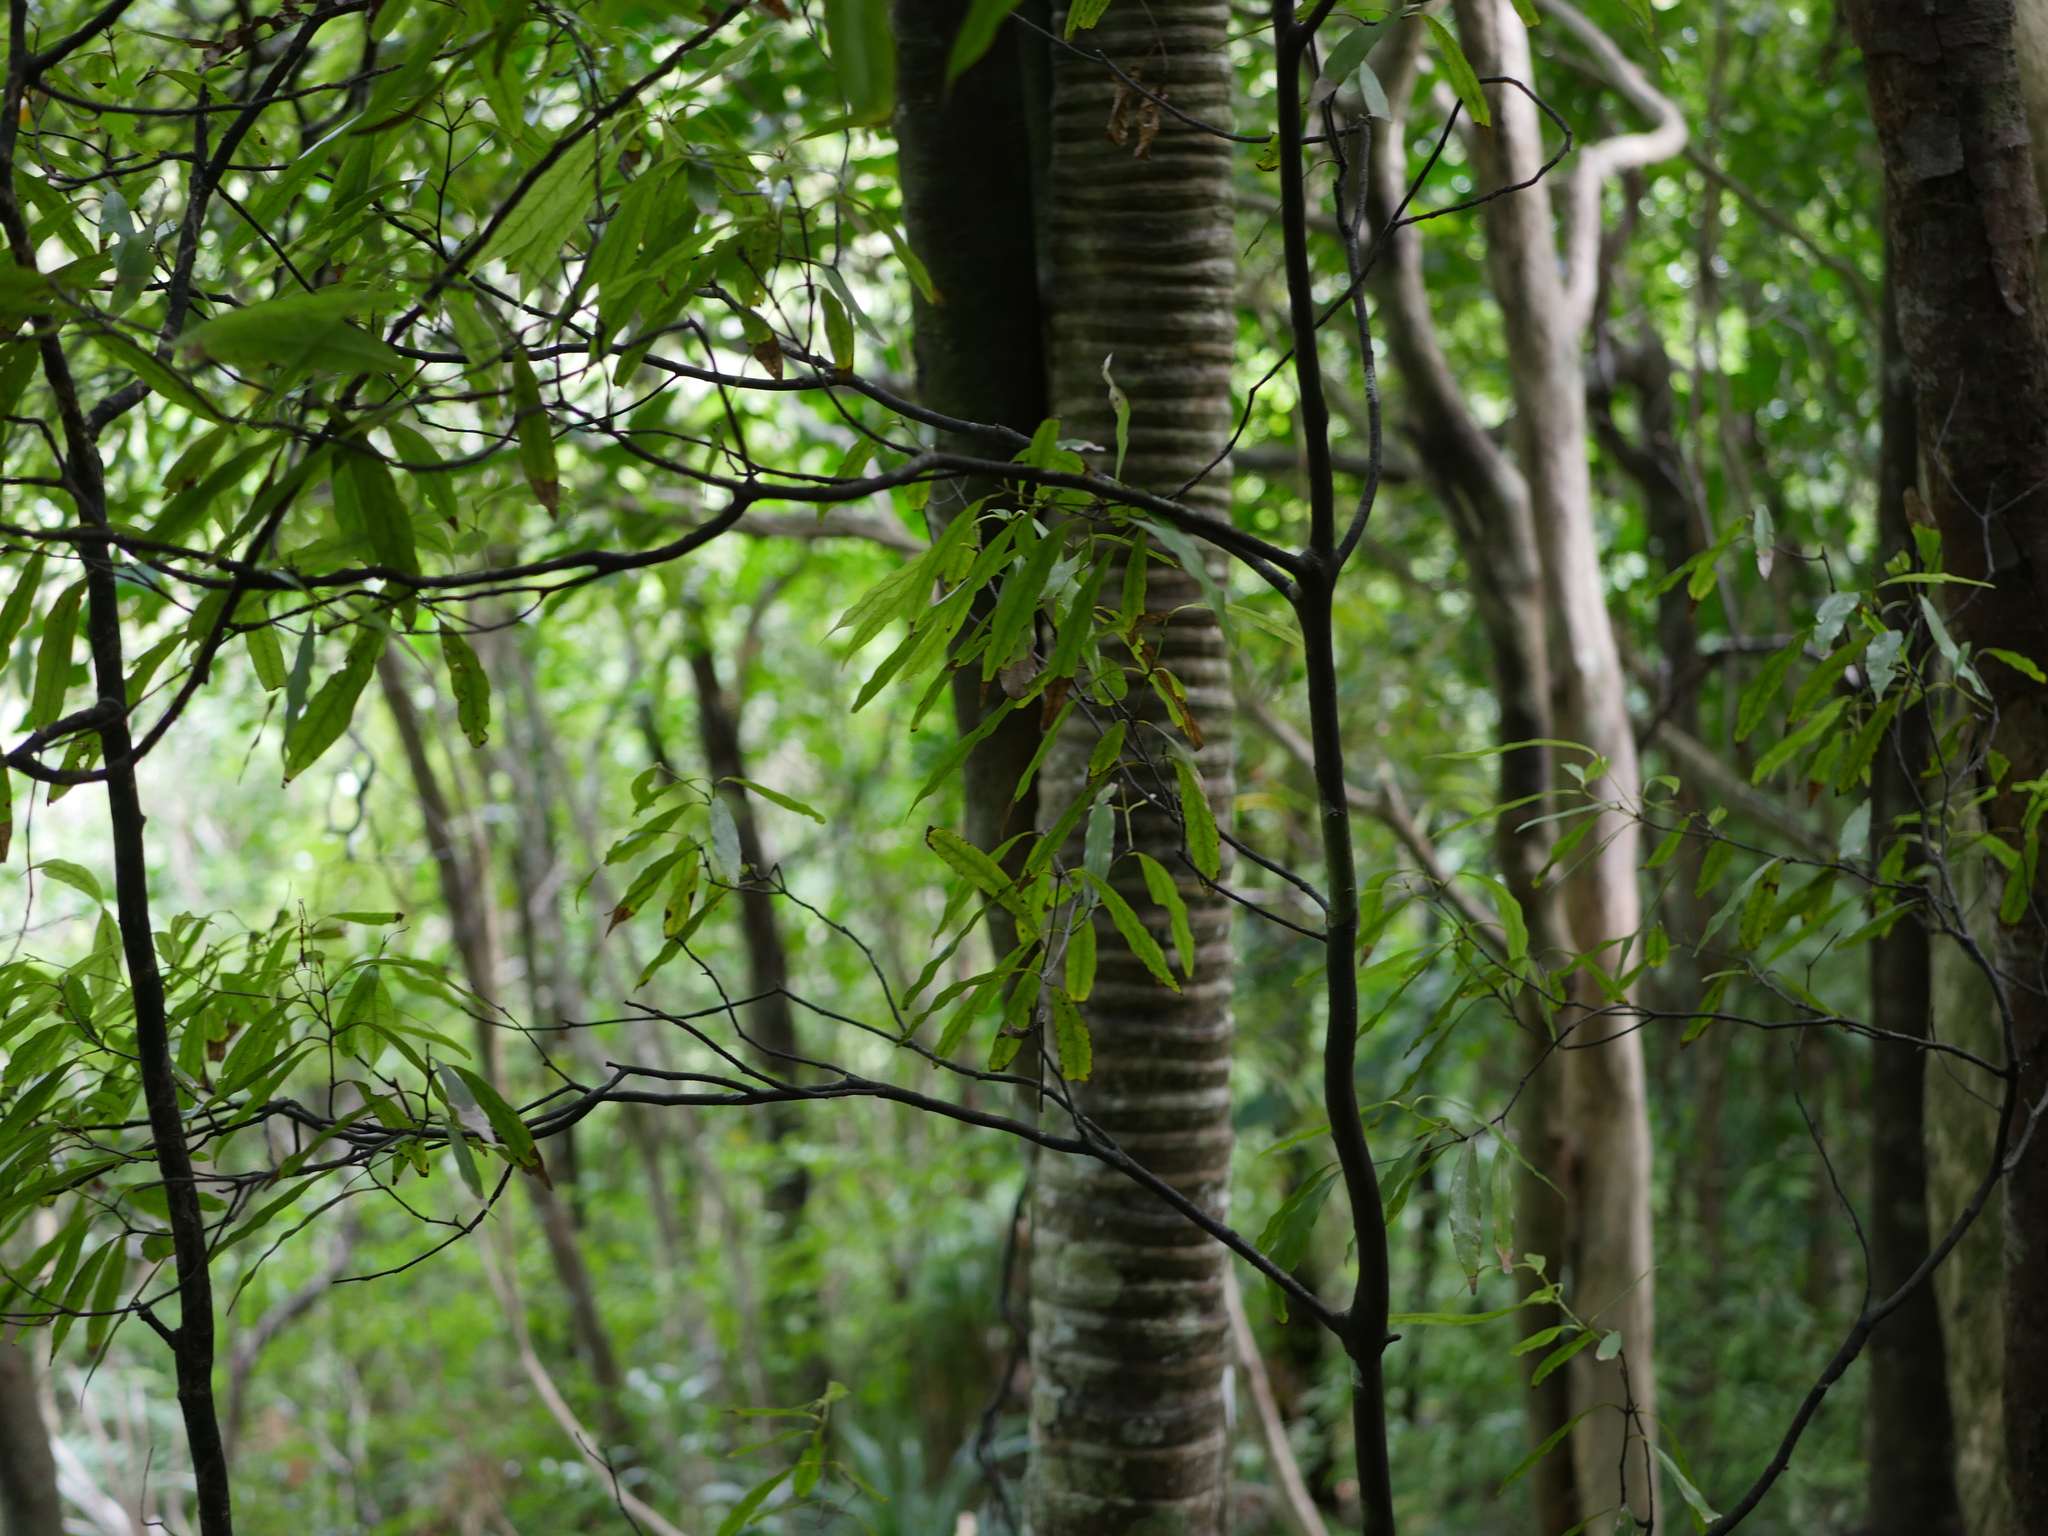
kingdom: Plantae
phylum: Tracheophyta
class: Magnoliopsida
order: Laurales
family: Lauraceae
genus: Beilschmiedia
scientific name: Beilschmiedia tawa
